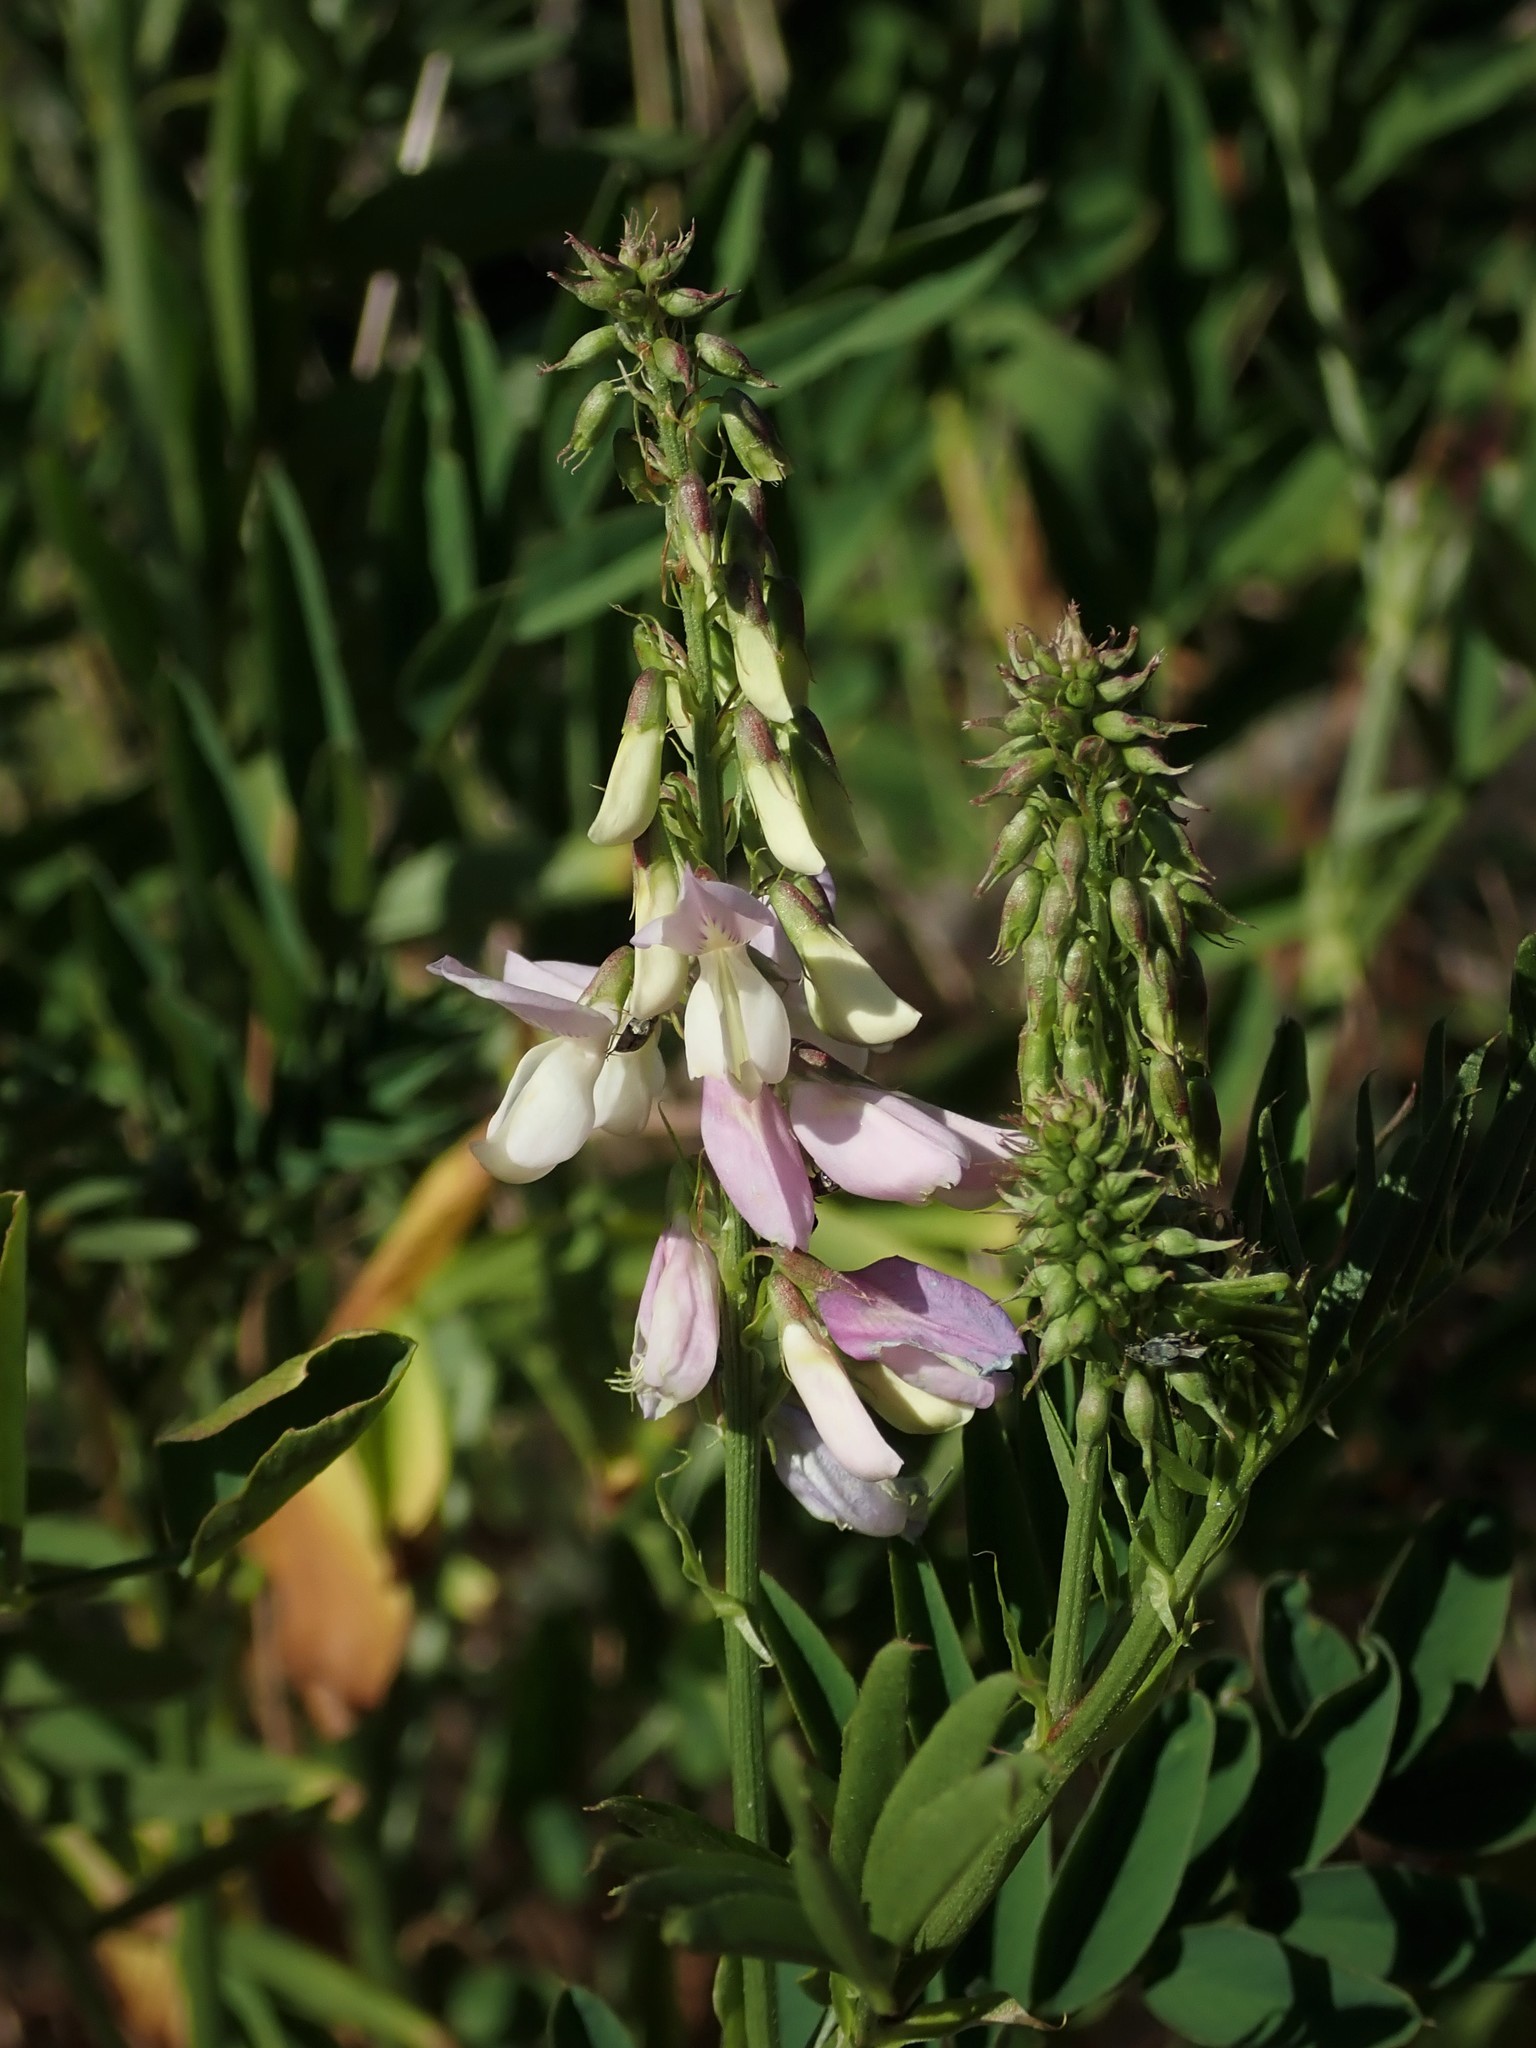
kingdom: Plantae
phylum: Tracheophyta
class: Magnoliopsida
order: Fabales
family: Fabaceae
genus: Galega
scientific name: Galega officinalis
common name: Goat's-rue
